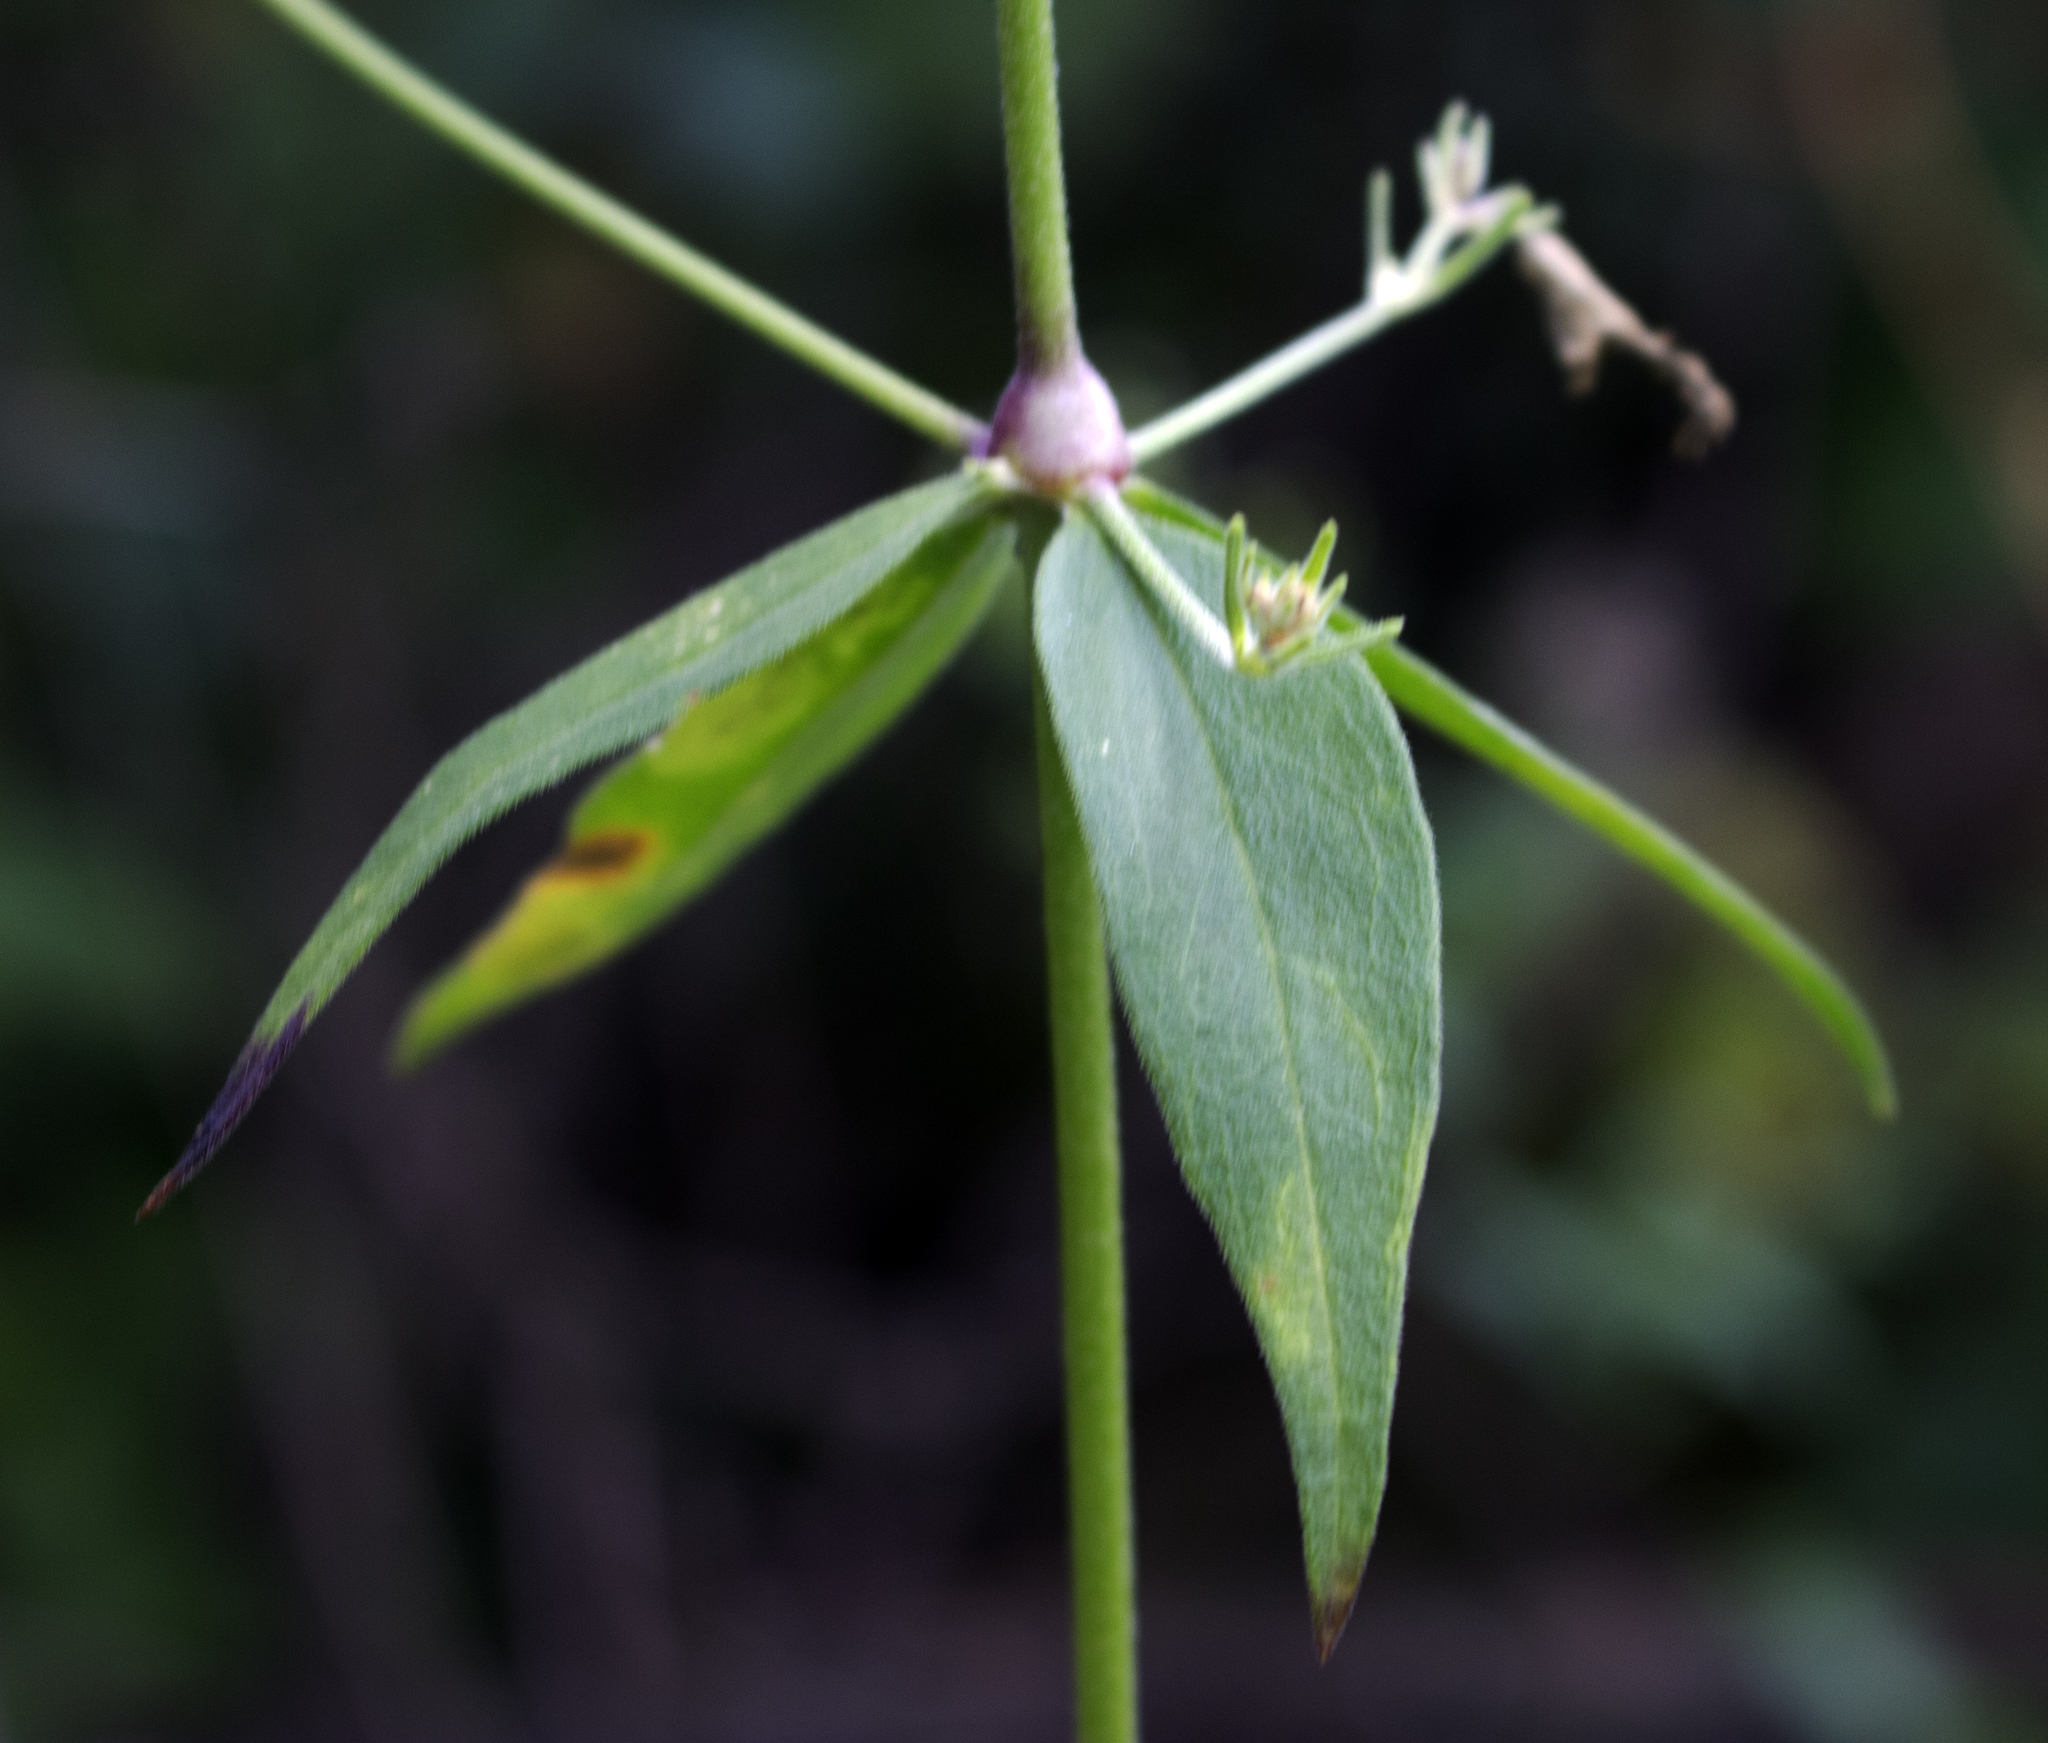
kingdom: Plantae
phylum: Tracheophyta
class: Magnoliopsida
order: Caryophyllales
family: Caryophyllaceae
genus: Silene
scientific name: Silene stellata
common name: Starry campion
